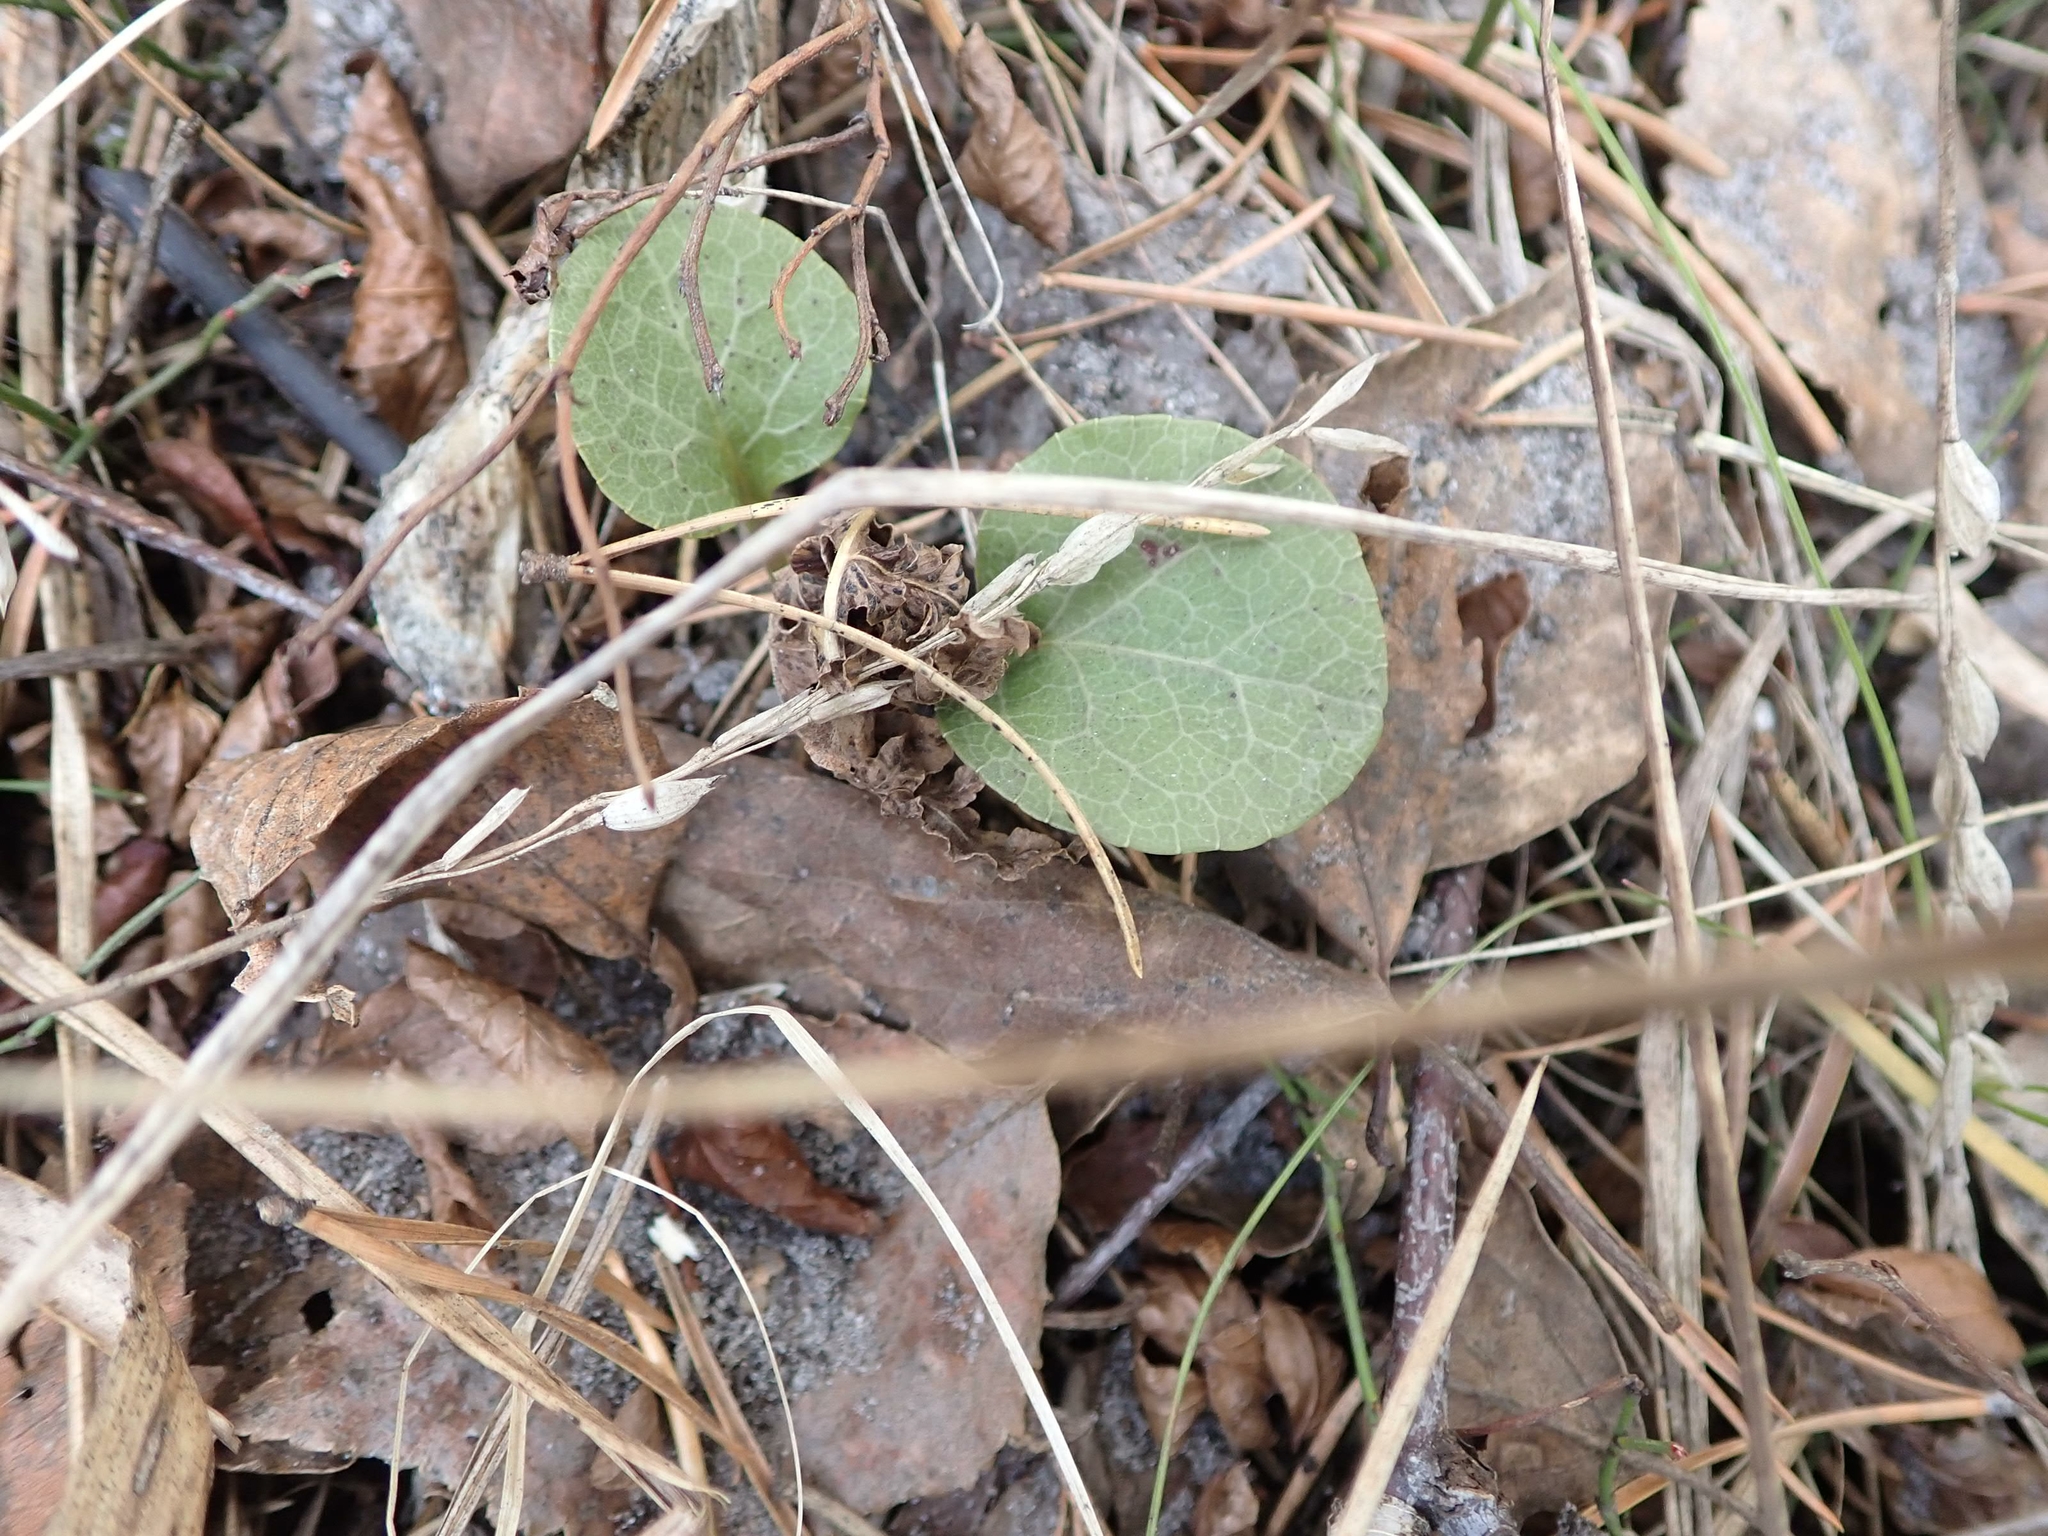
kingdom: Plantae
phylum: Tracheophyta
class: Magnoliopsida
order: Ericales
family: Ericaceae
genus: Pyrola
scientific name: Pyrola americana
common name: American wintergreen
